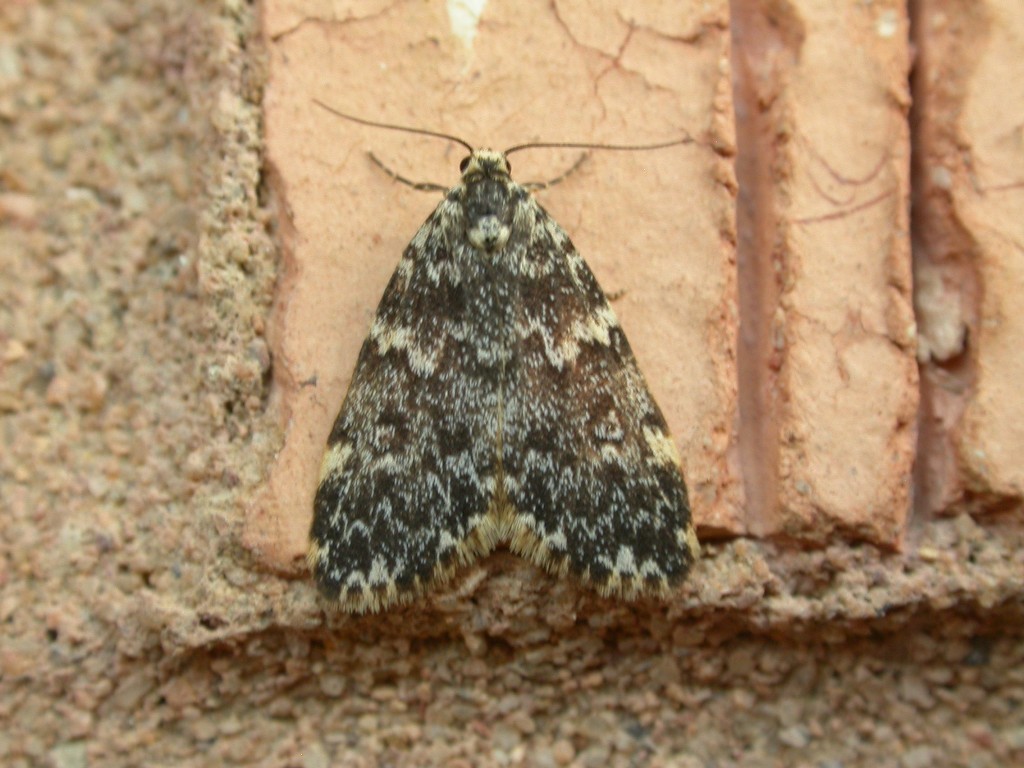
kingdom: Animalia
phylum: Arthropoda
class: Insecta
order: Lepidoptera
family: Erebidae
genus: Halone
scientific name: Halone coryphoea
